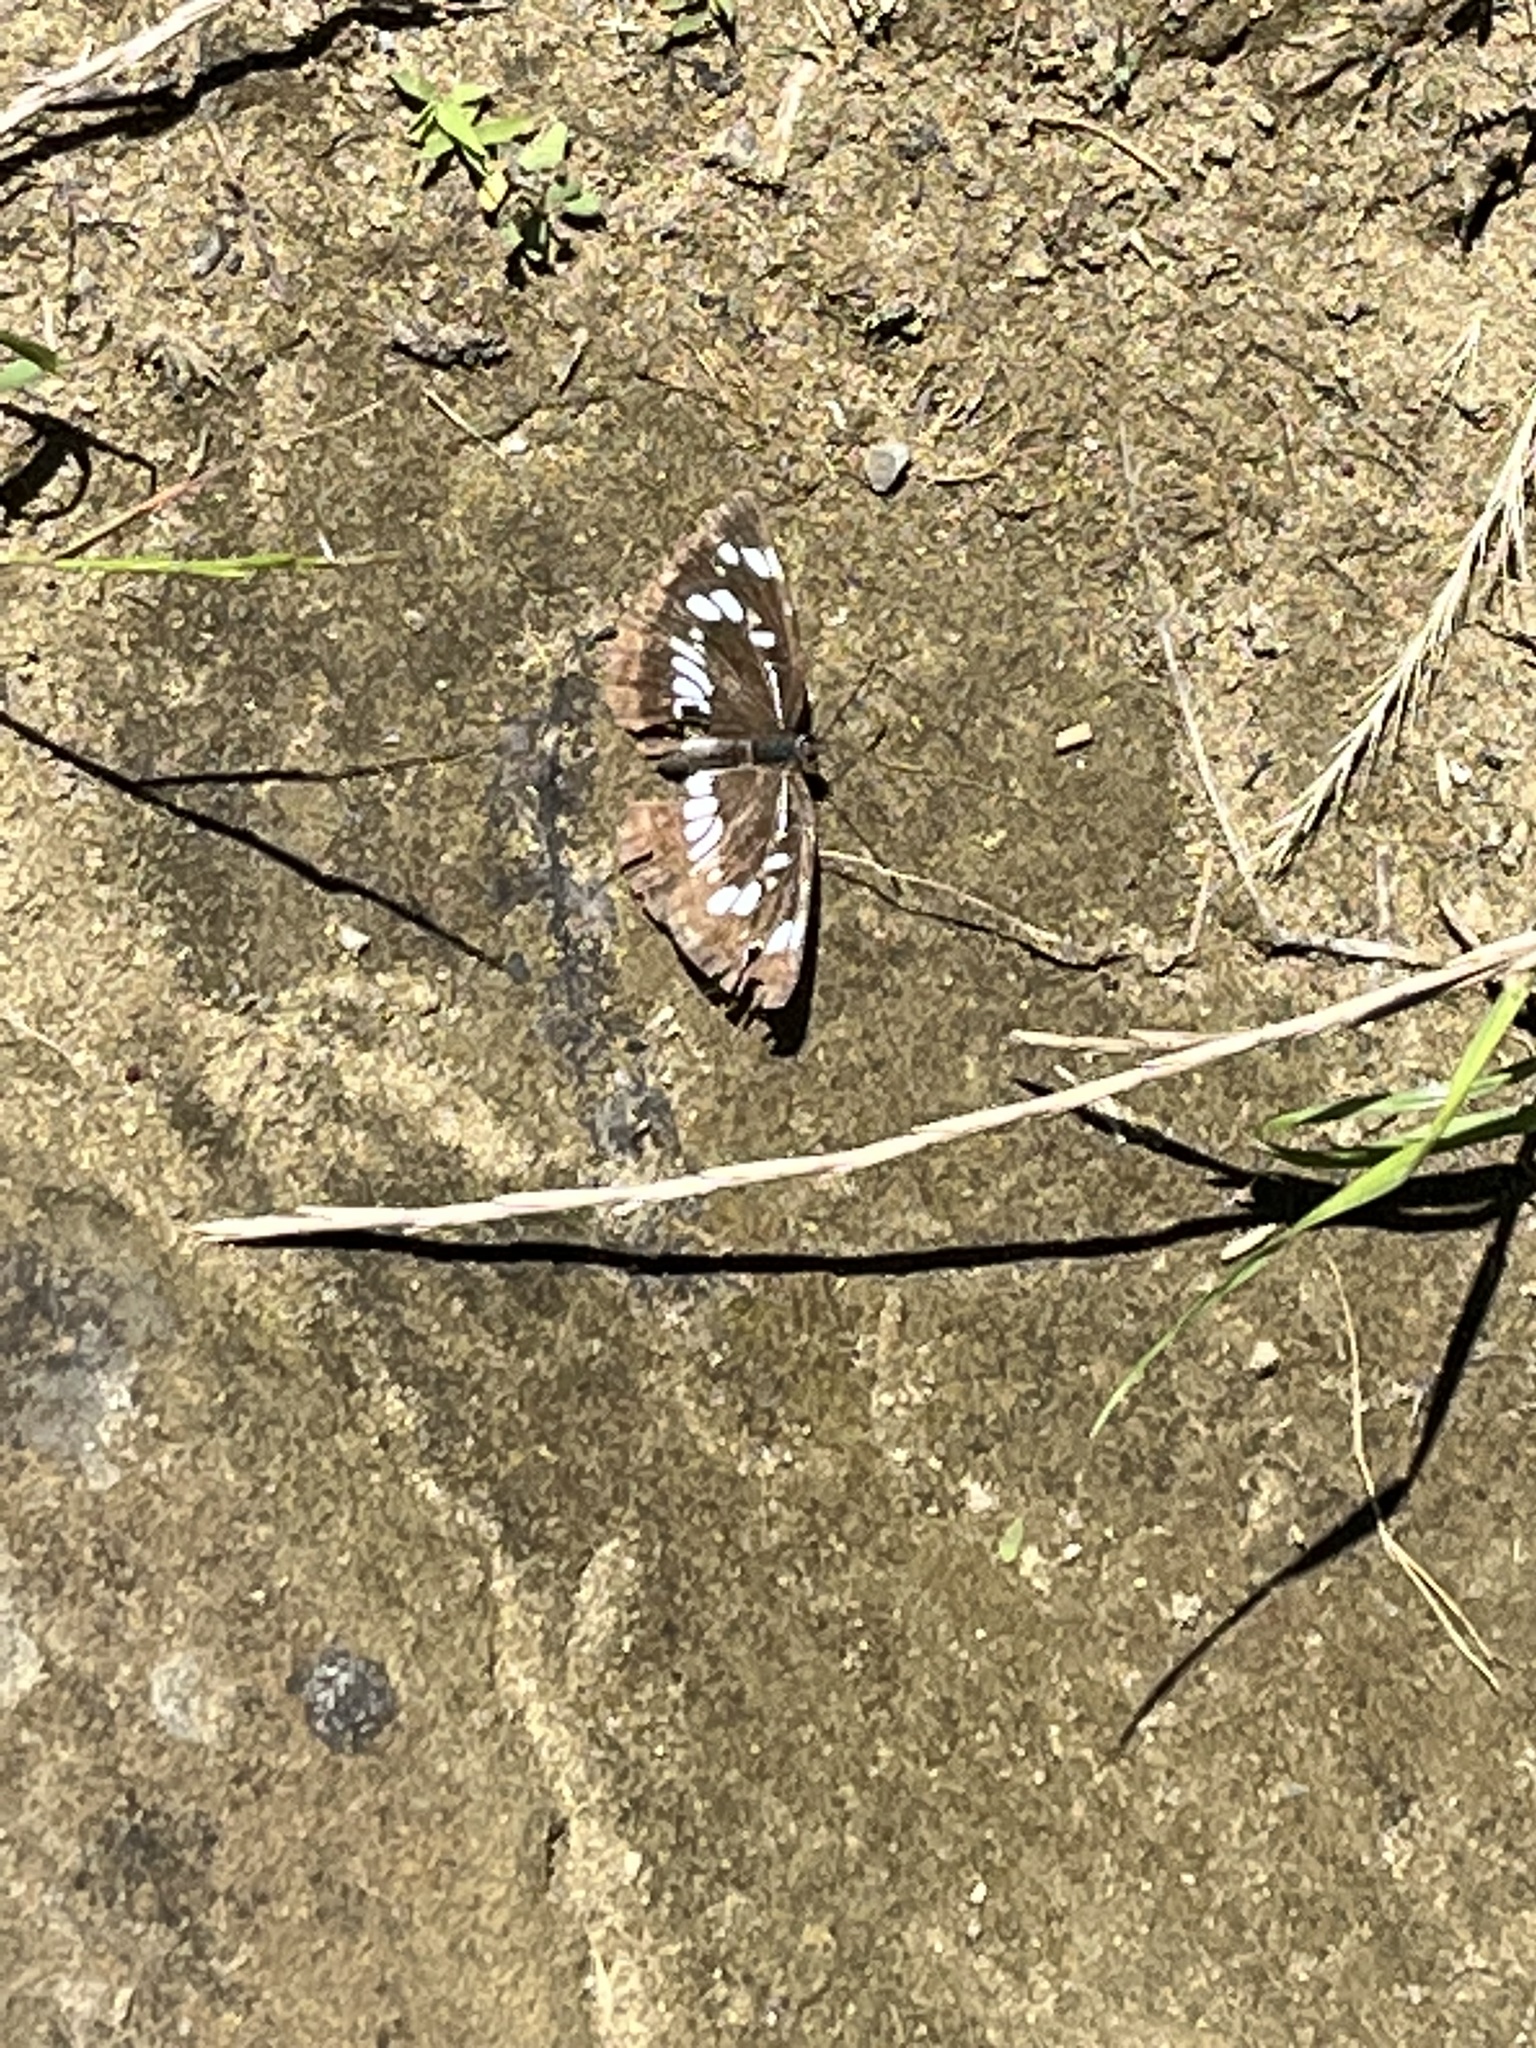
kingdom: Animalia
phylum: Arthropoda
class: Insecta
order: Lepidoptera
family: Nymphalidae
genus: Neptis
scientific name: Neptis rivularis
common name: Hungarian glider
